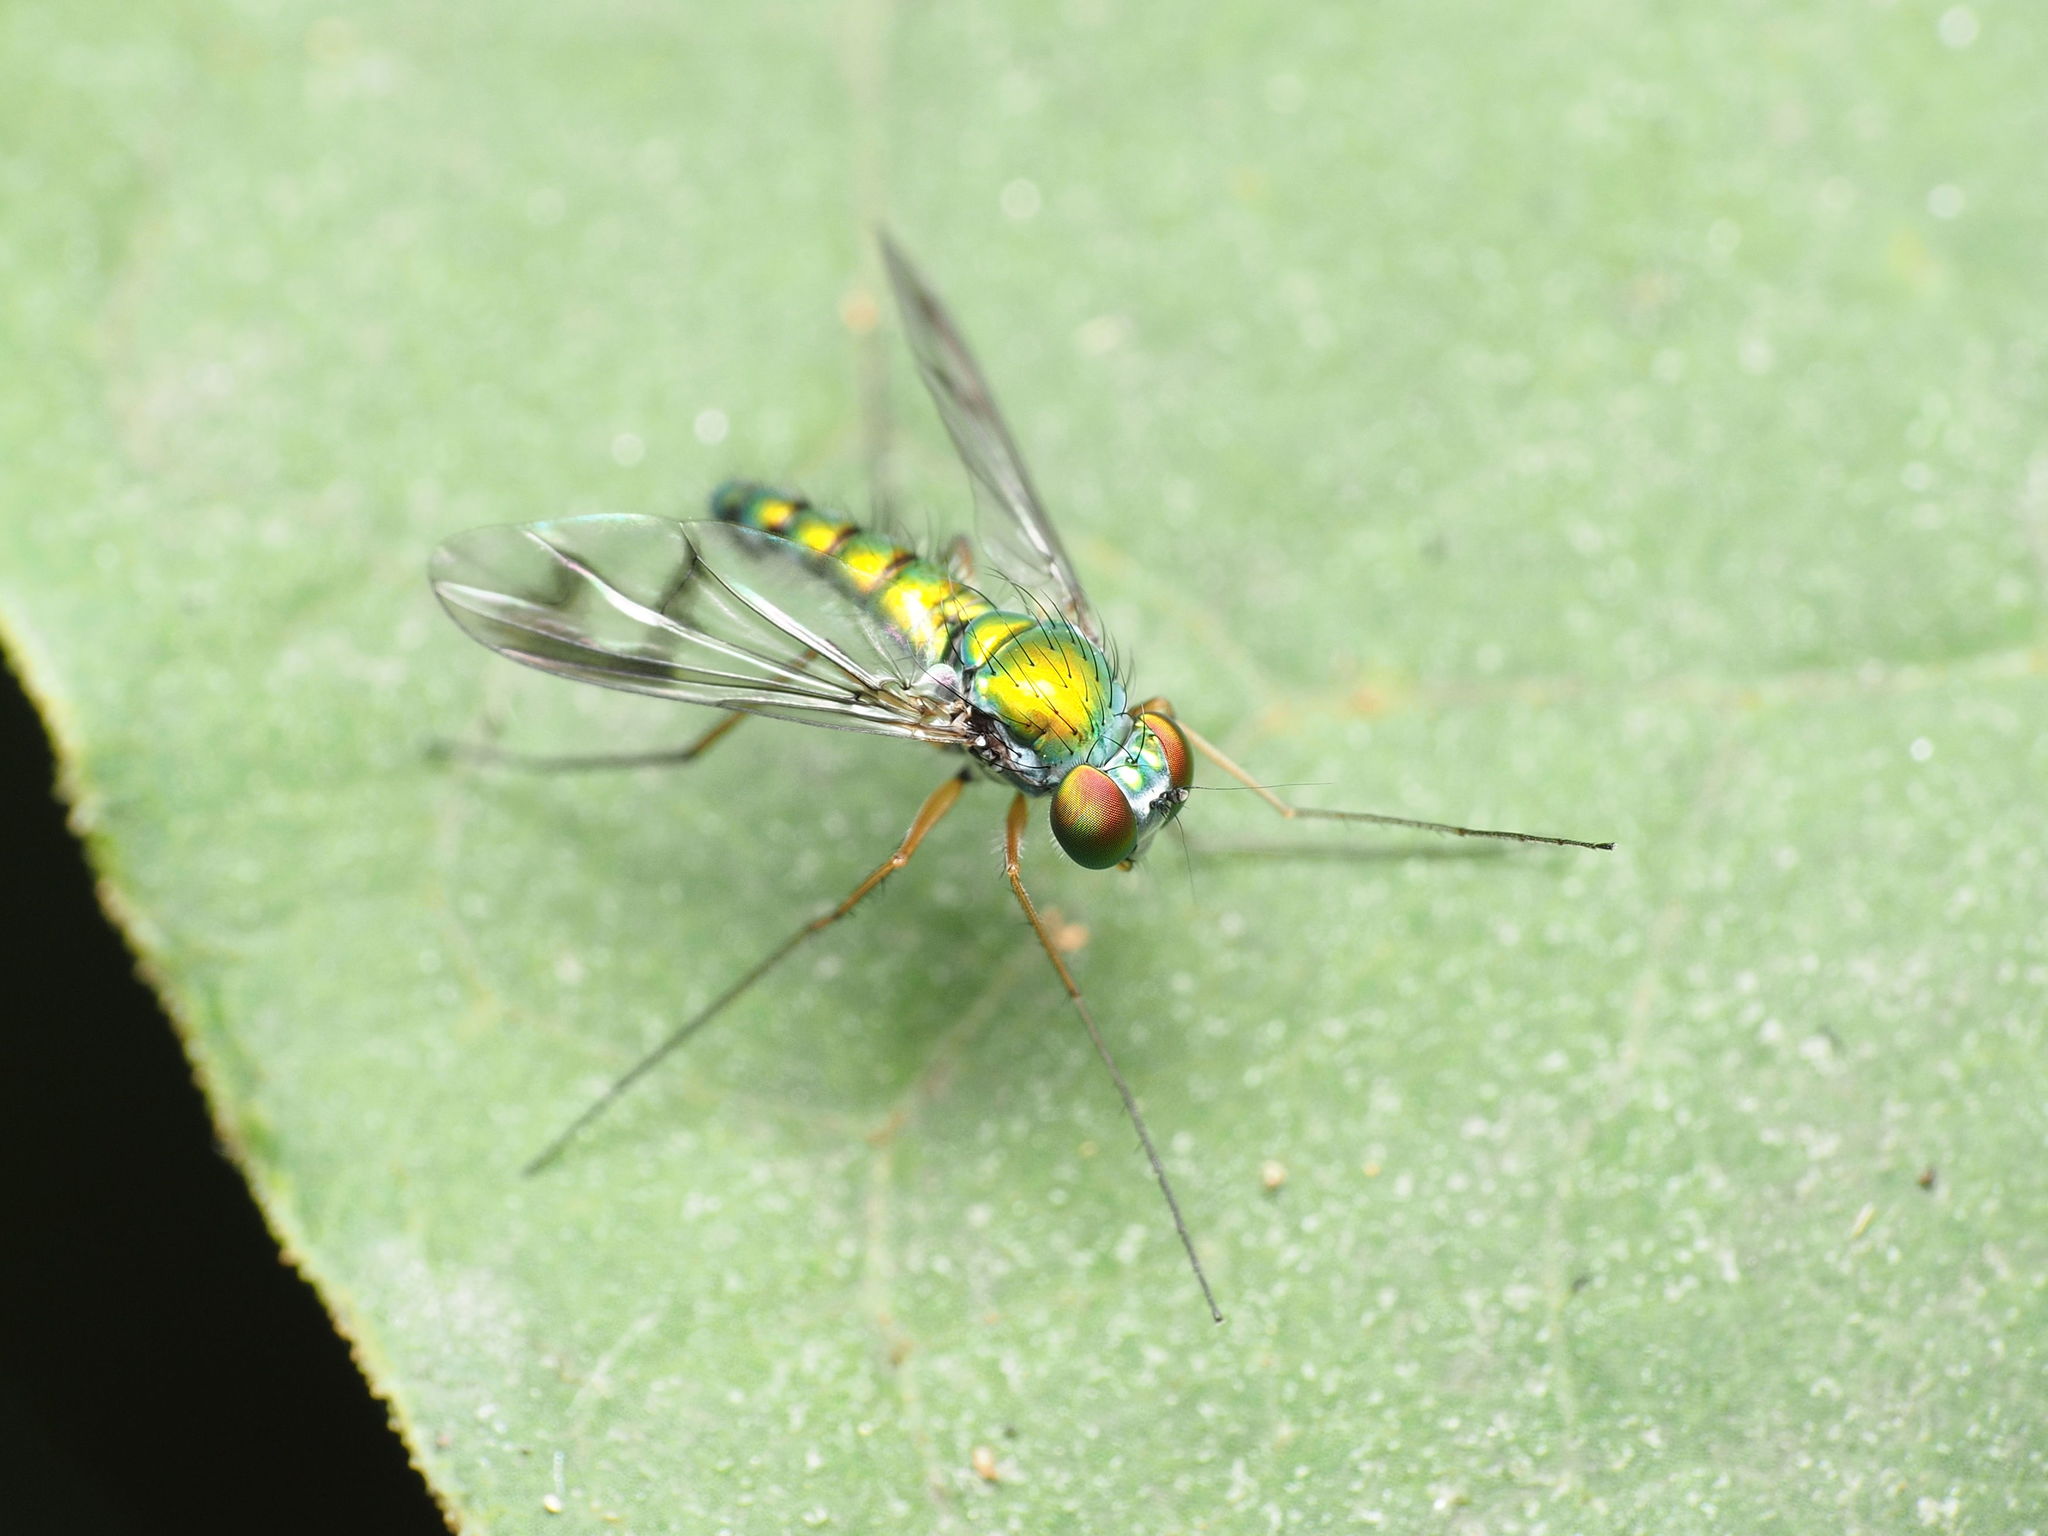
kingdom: Animalia
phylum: Arthropoda
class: Insecta
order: Diptera
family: Dolichopodidae
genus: Condylostylus
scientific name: Condylostylus brimleyi
